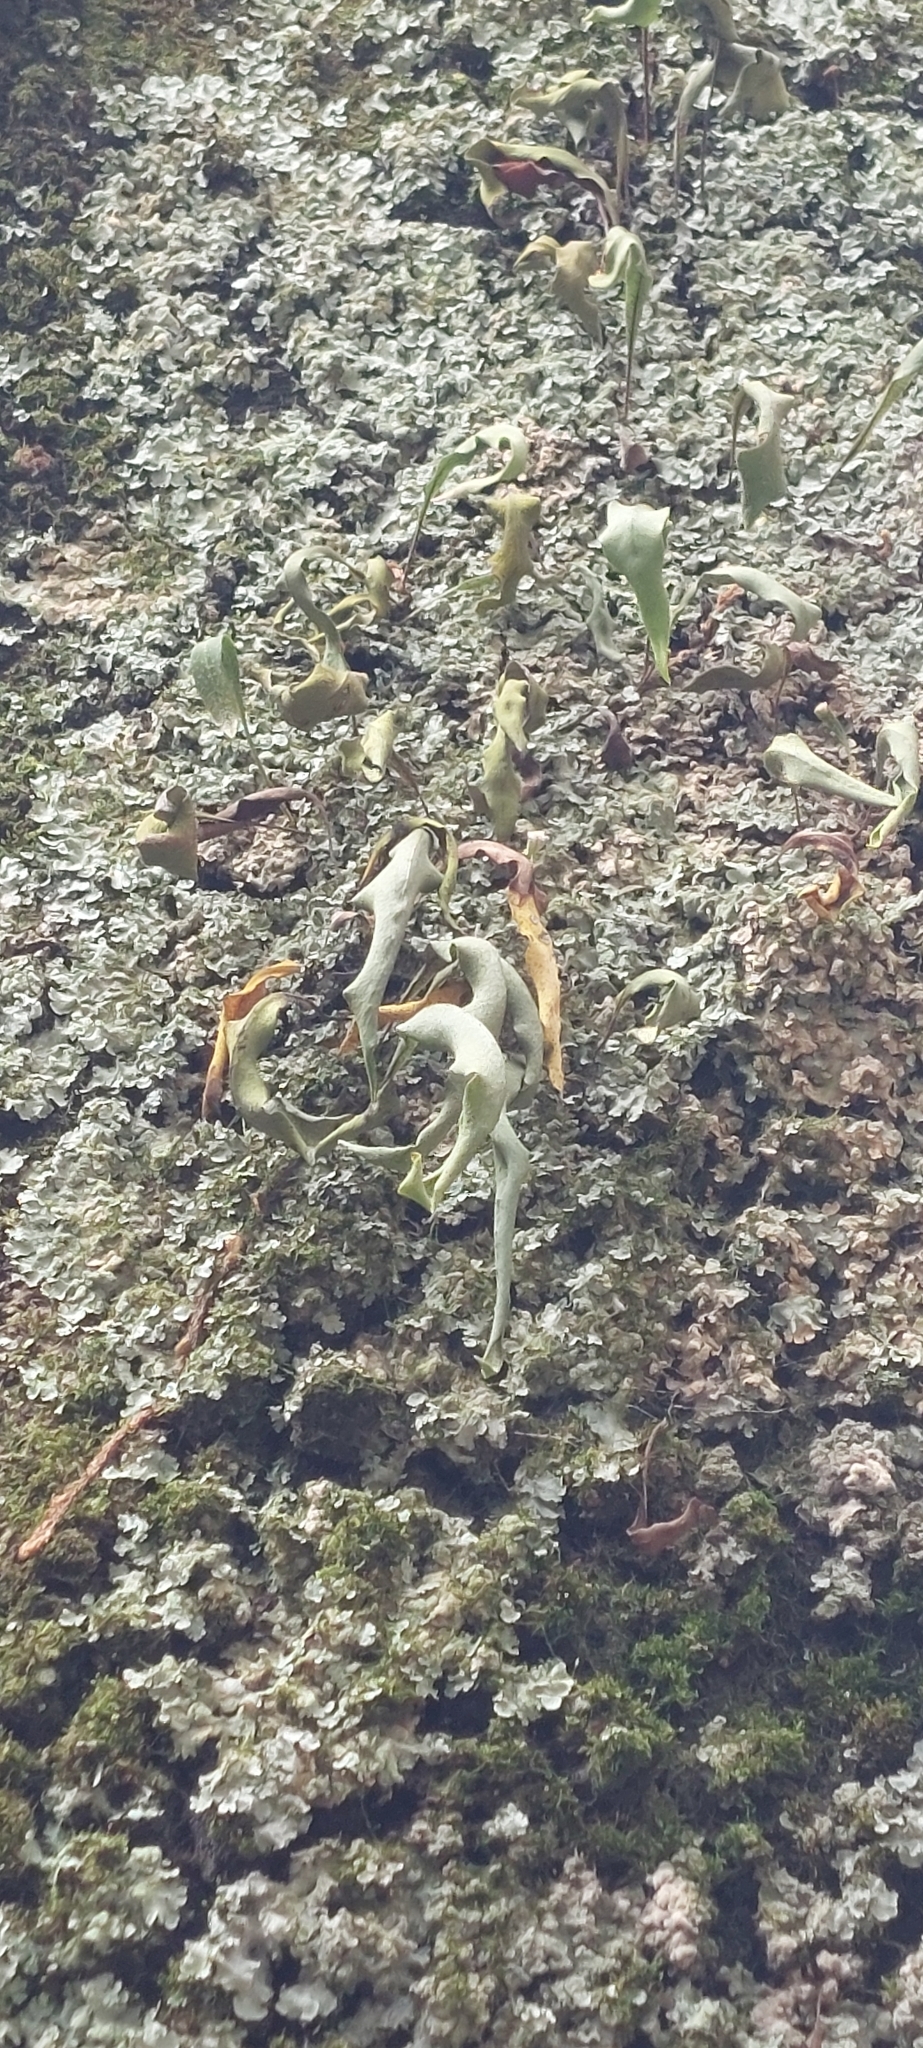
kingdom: Plantae
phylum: Tracheophyta
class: Polypodiopsida
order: Polypodiales
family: Polypodiaceae
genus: Pleopeltis
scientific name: Pleopeltis macrocarpa
